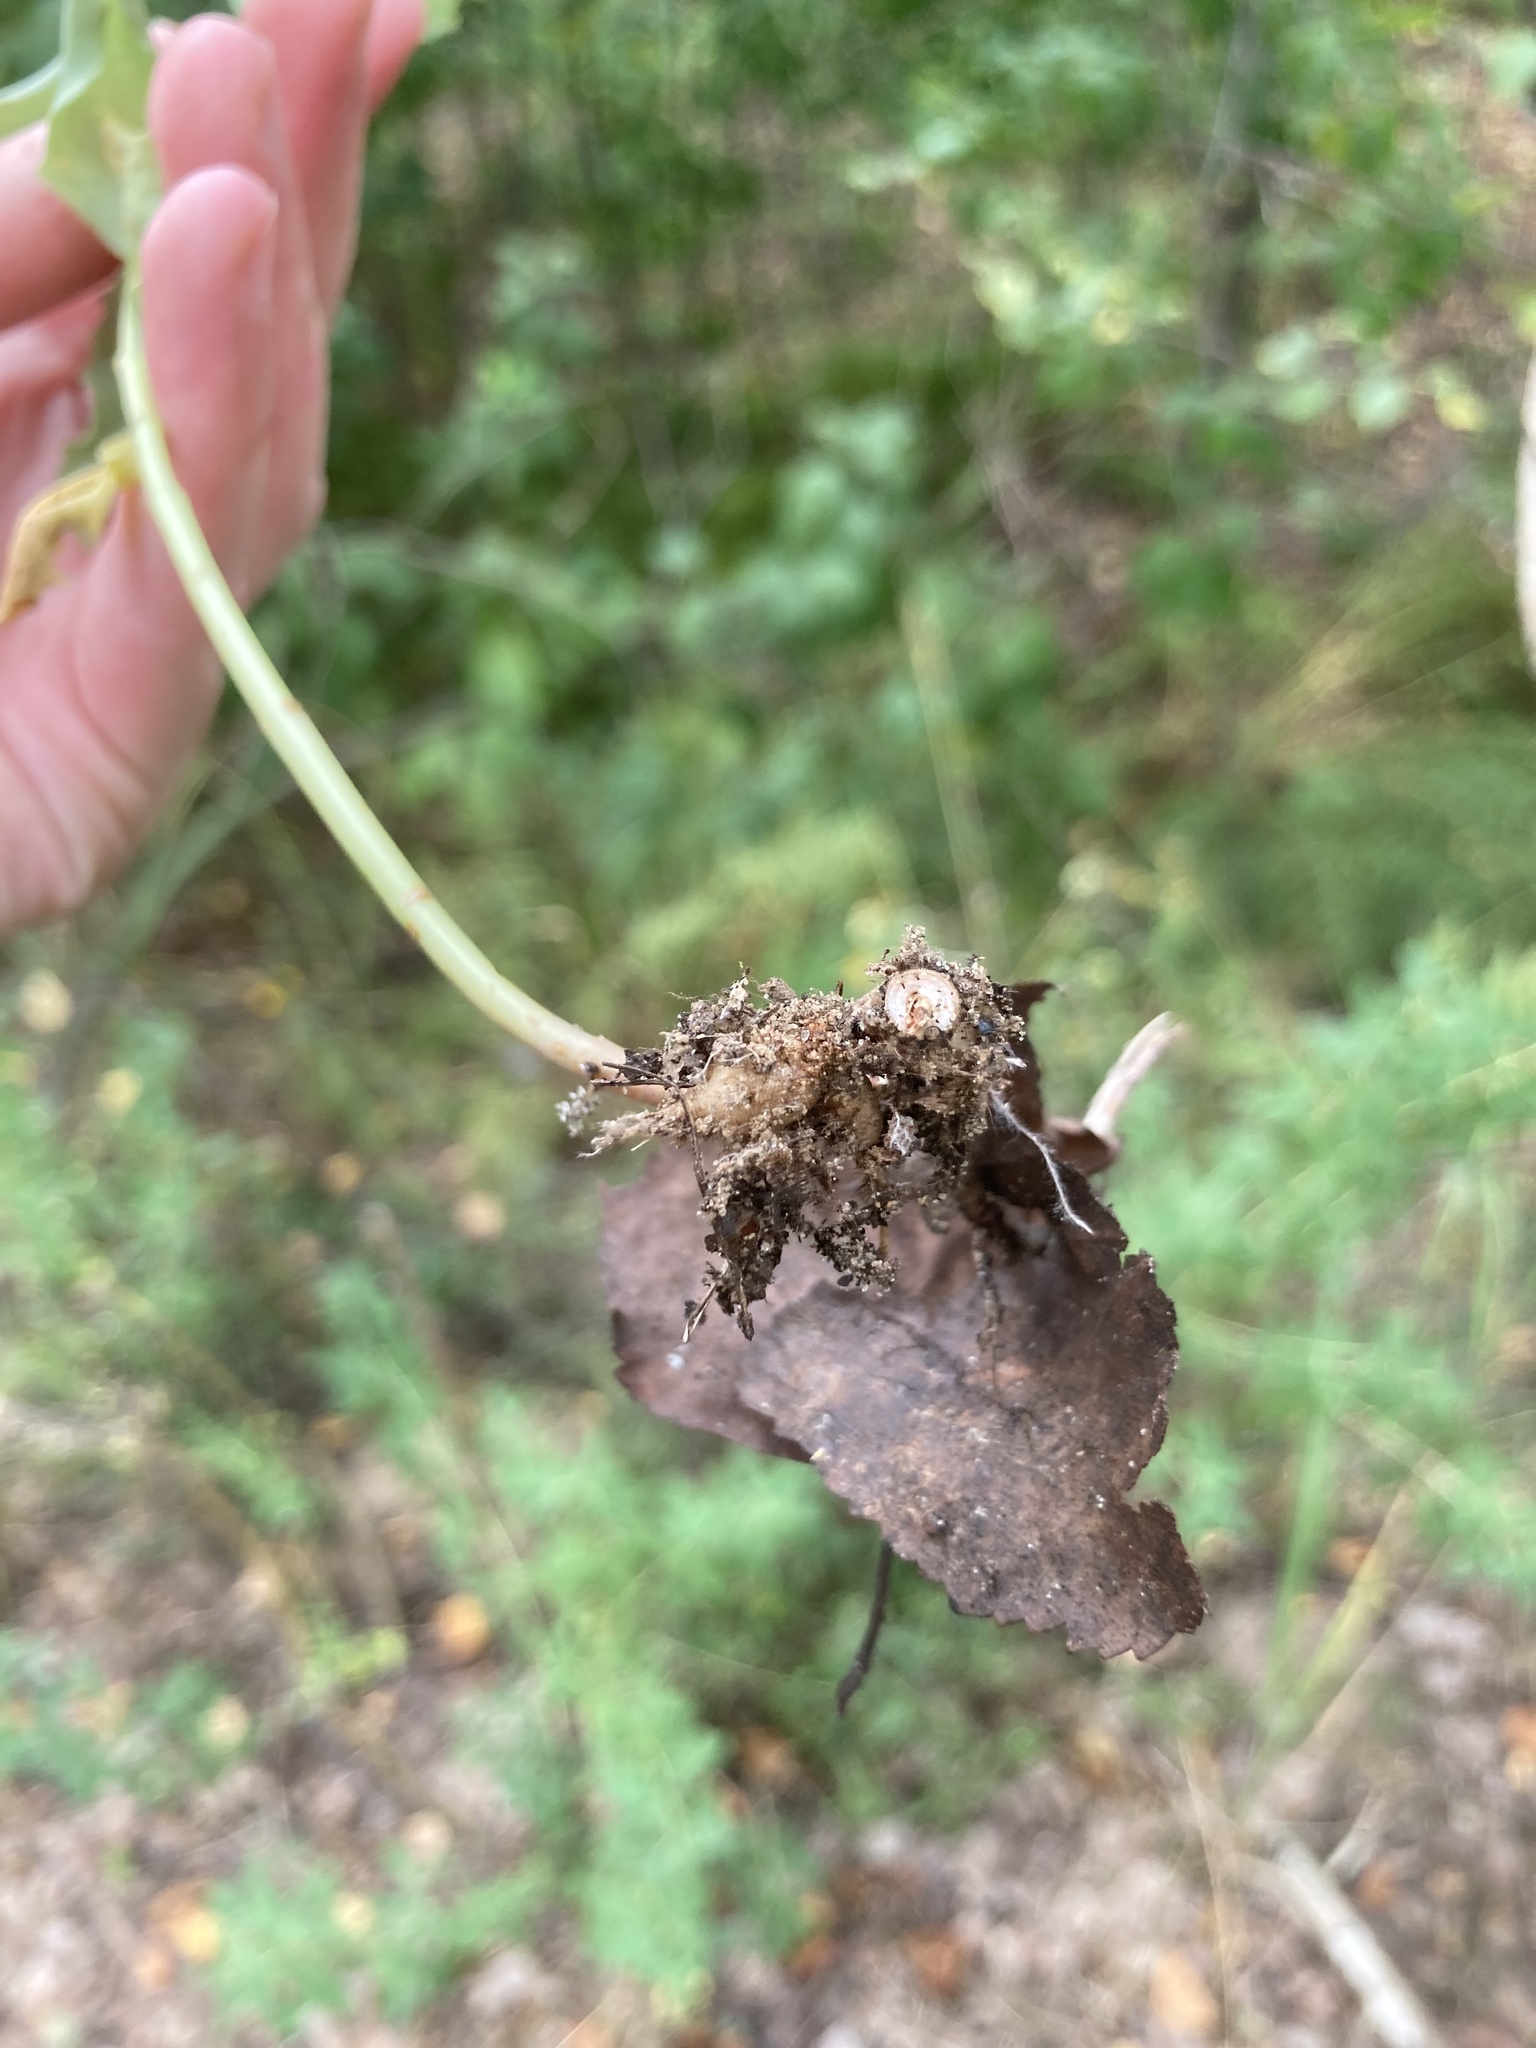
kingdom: Plantae
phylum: Tracheophyta
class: Magnoliopsida
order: Saxifragales
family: Crassulaceae
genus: Hylotelephium
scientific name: Hylotelephium maximum
